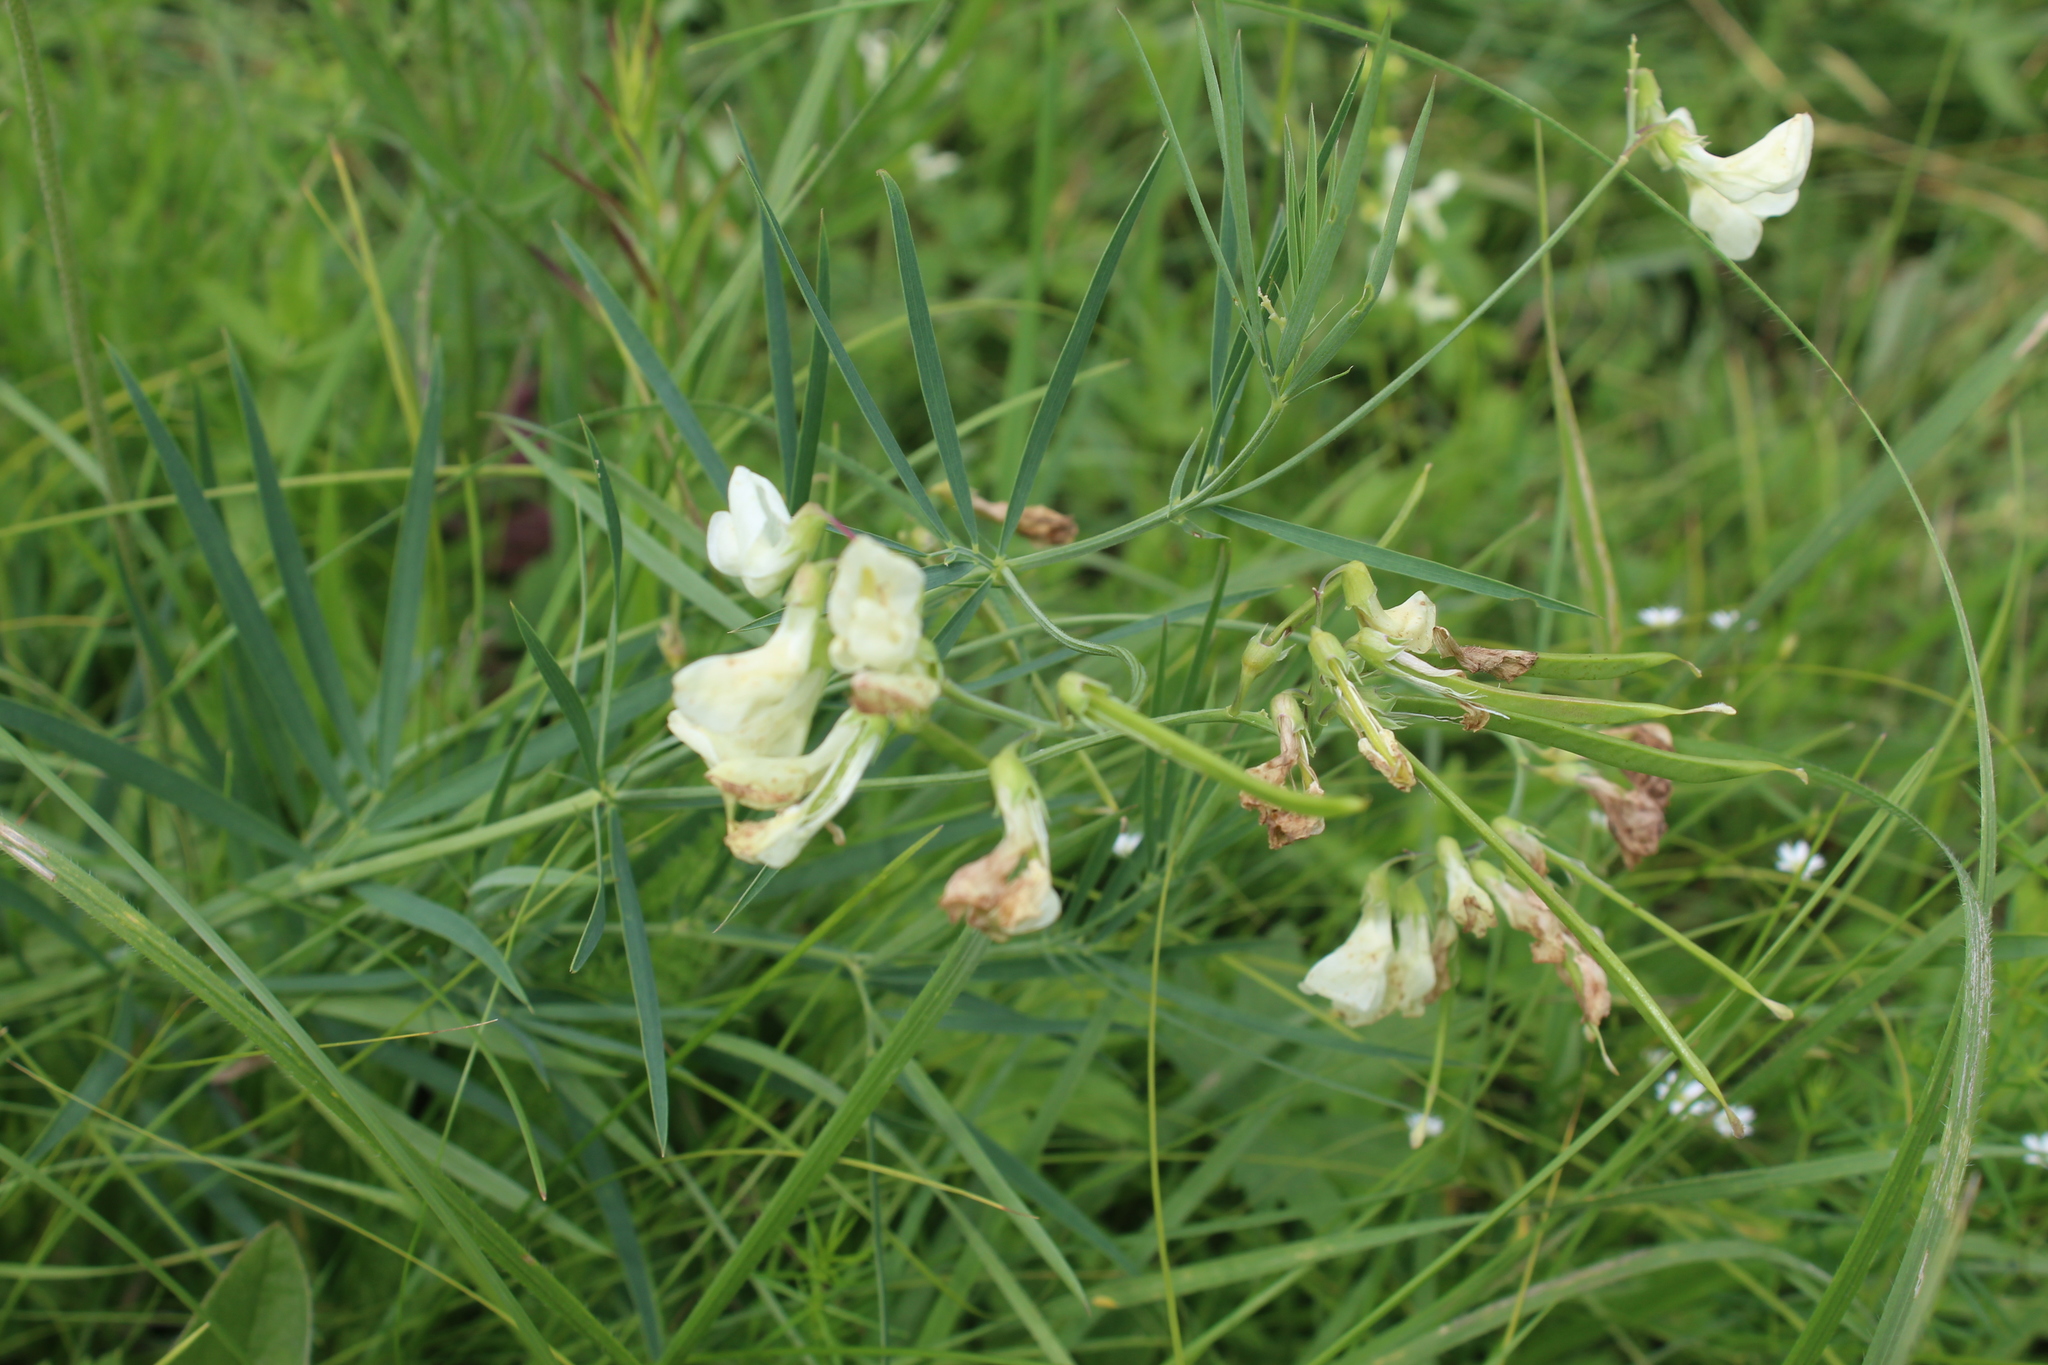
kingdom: Plantae
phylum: Tracheophyta
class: Magnoliopsida
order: Fabales
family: Fabaceae
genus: Lathyrus
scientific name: Lathyrus pallescens
